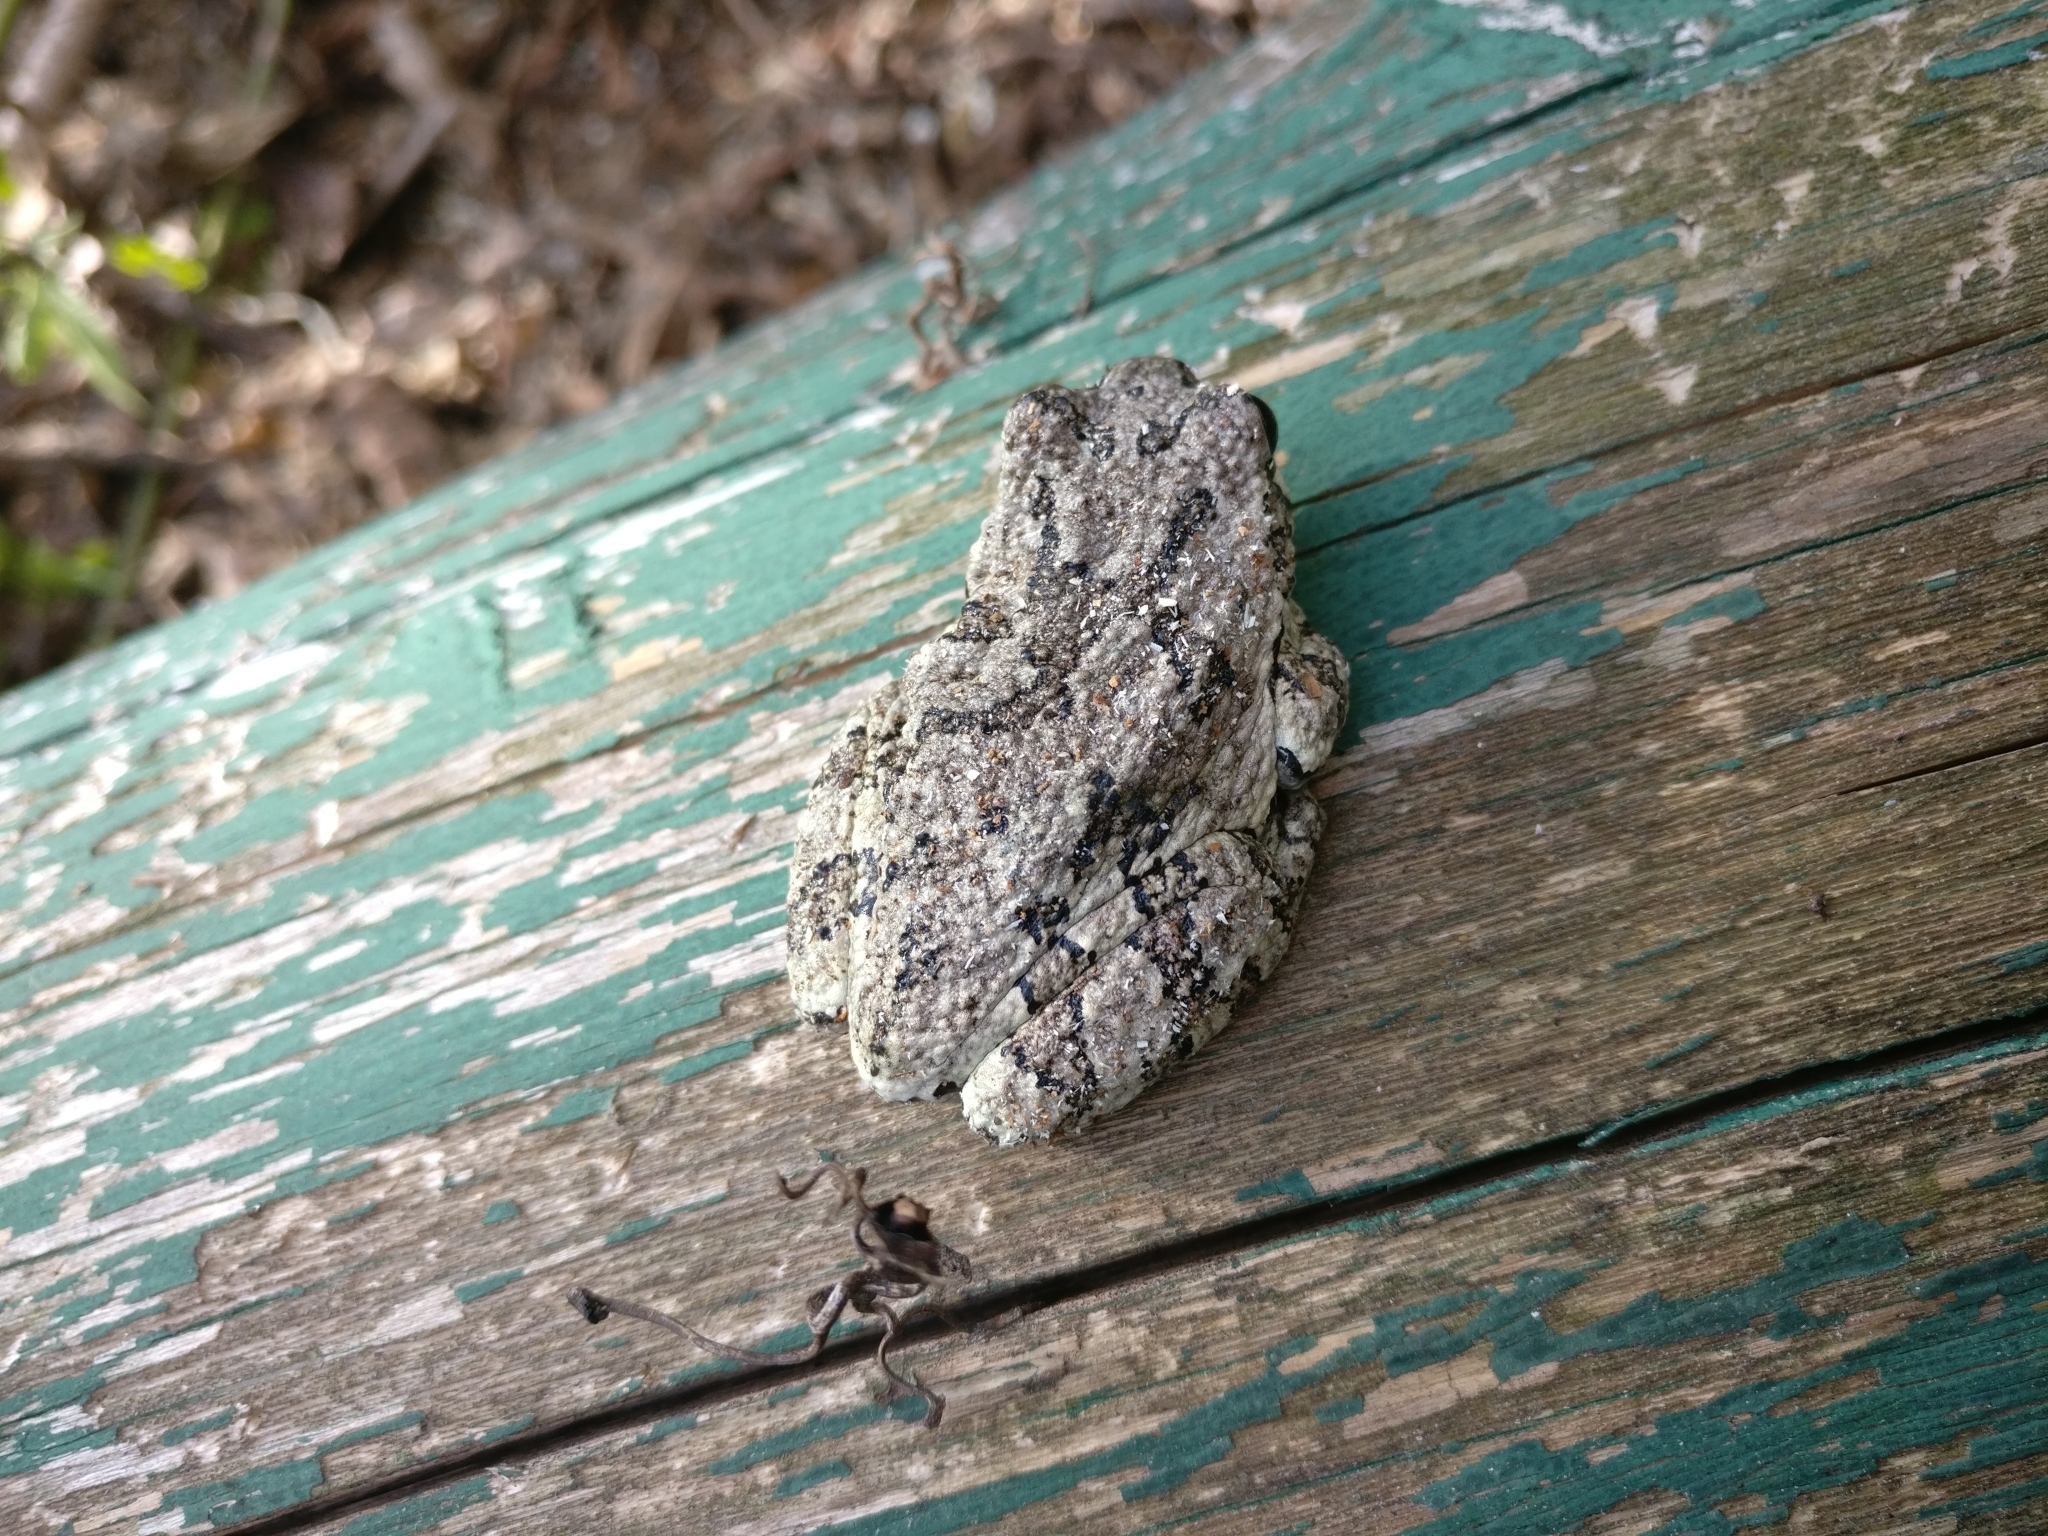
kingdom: Animalia
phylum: Chordata
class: Amphibia
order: Anura
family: Hylidae
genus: Dryophytes
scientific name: Dryophytes versicolor
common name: Gray treefrog
